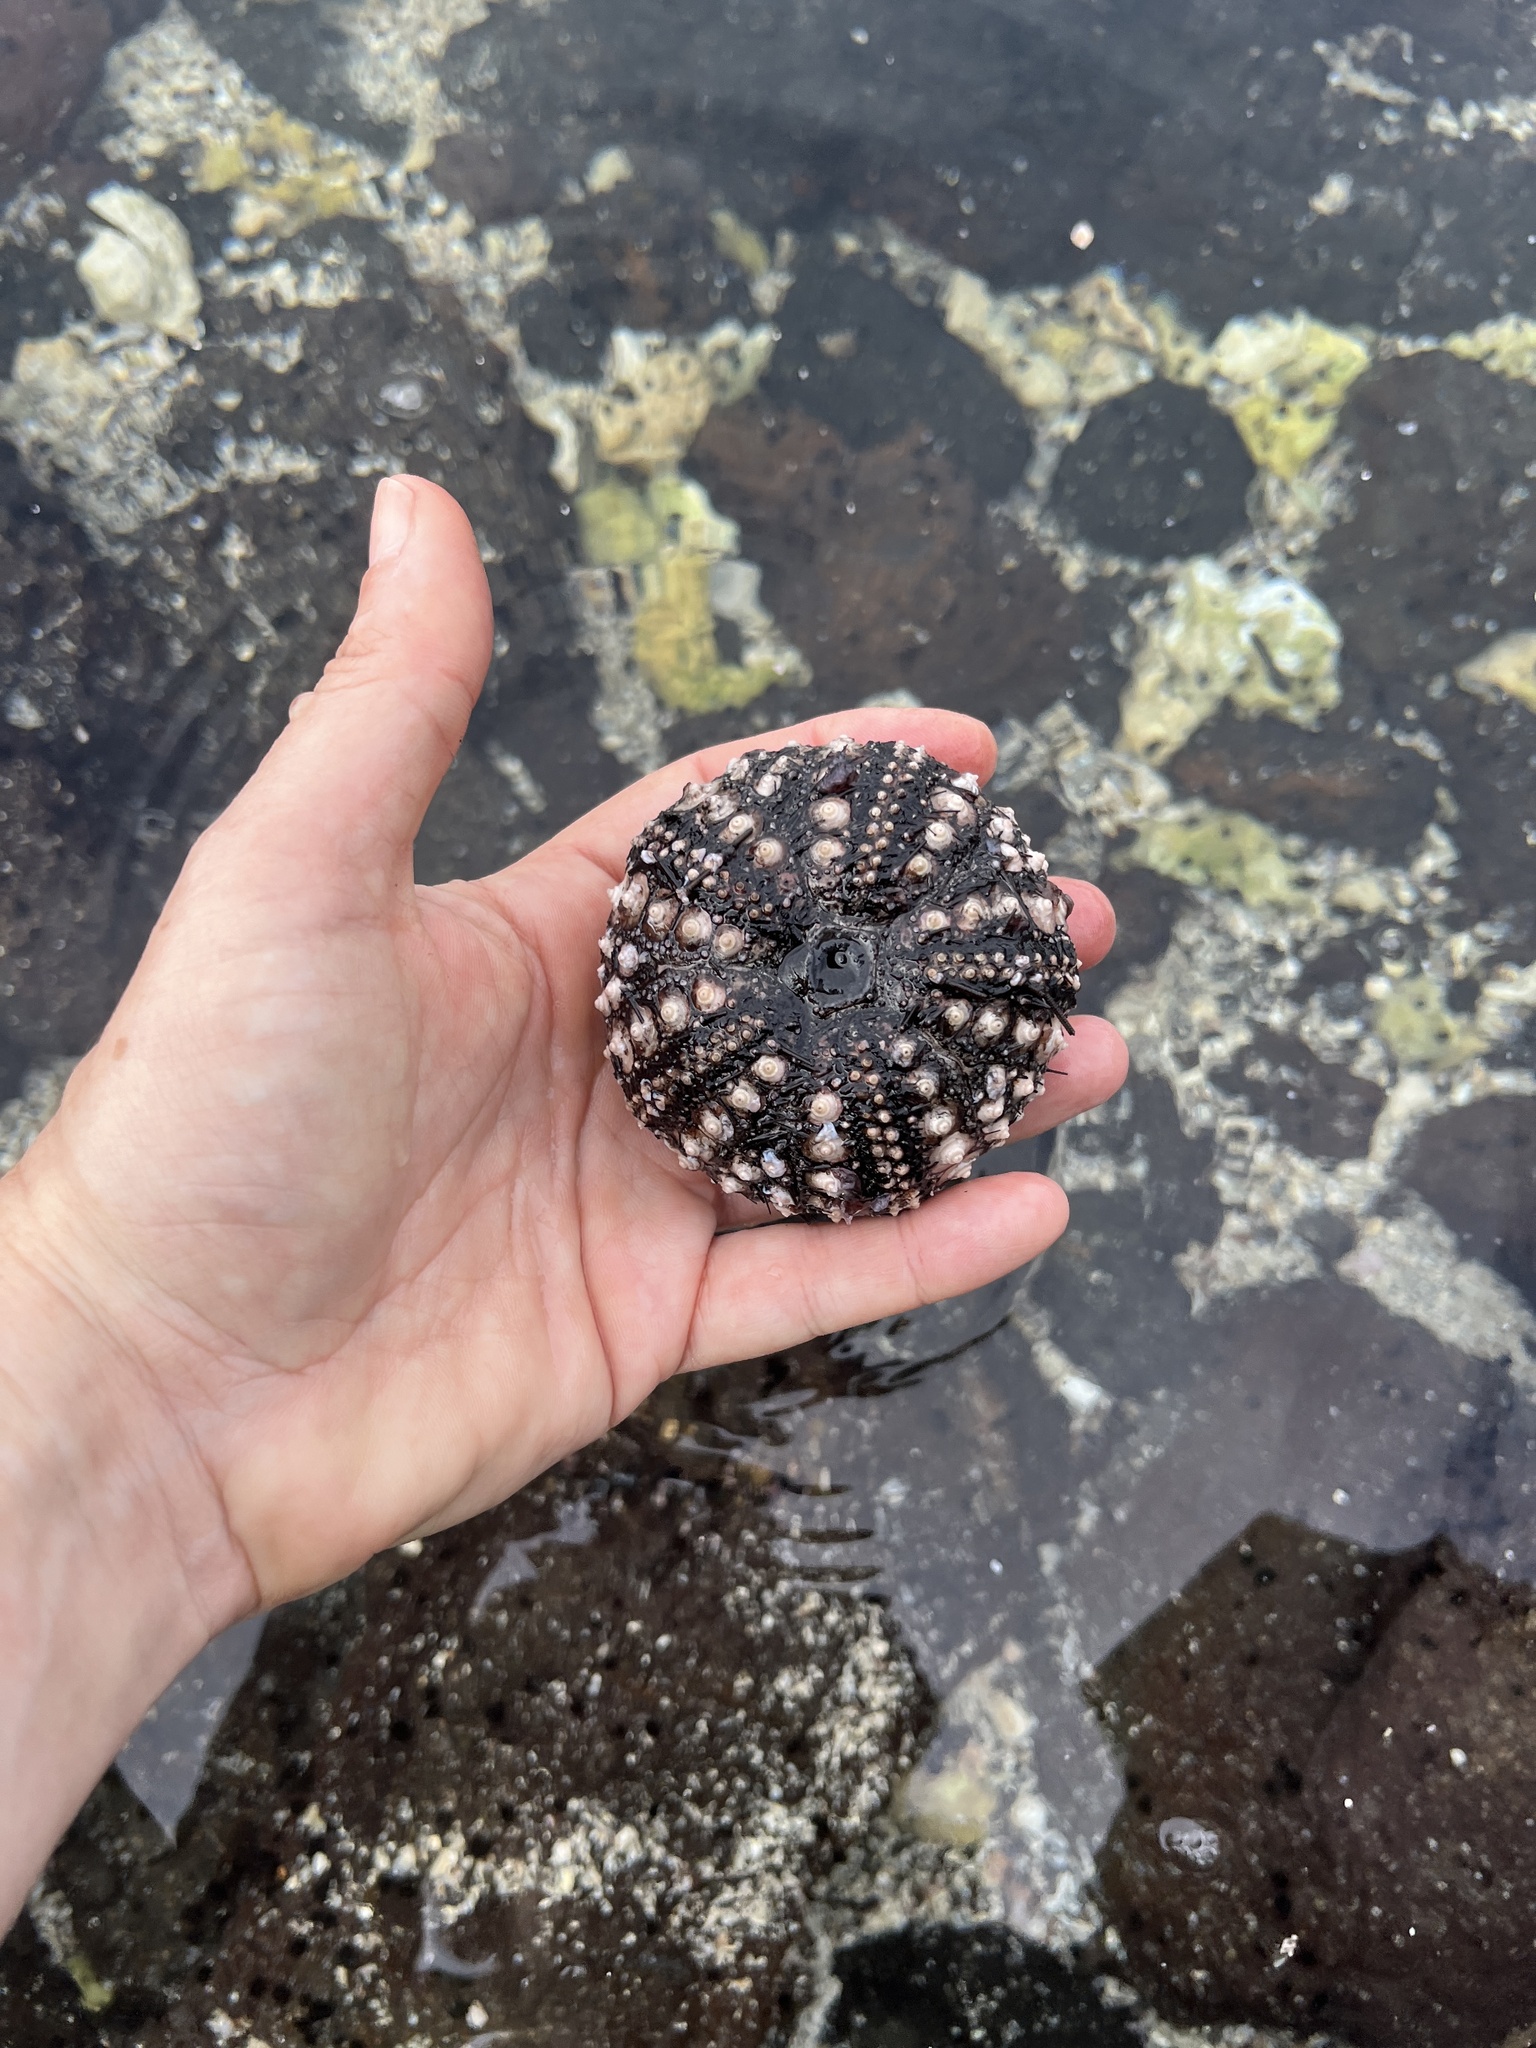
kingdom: Animalia
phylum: Echinodermata
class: Echinoidea
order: Diadematoida
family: Diadematidae
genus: Diadema
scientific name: Diadema savignyi
